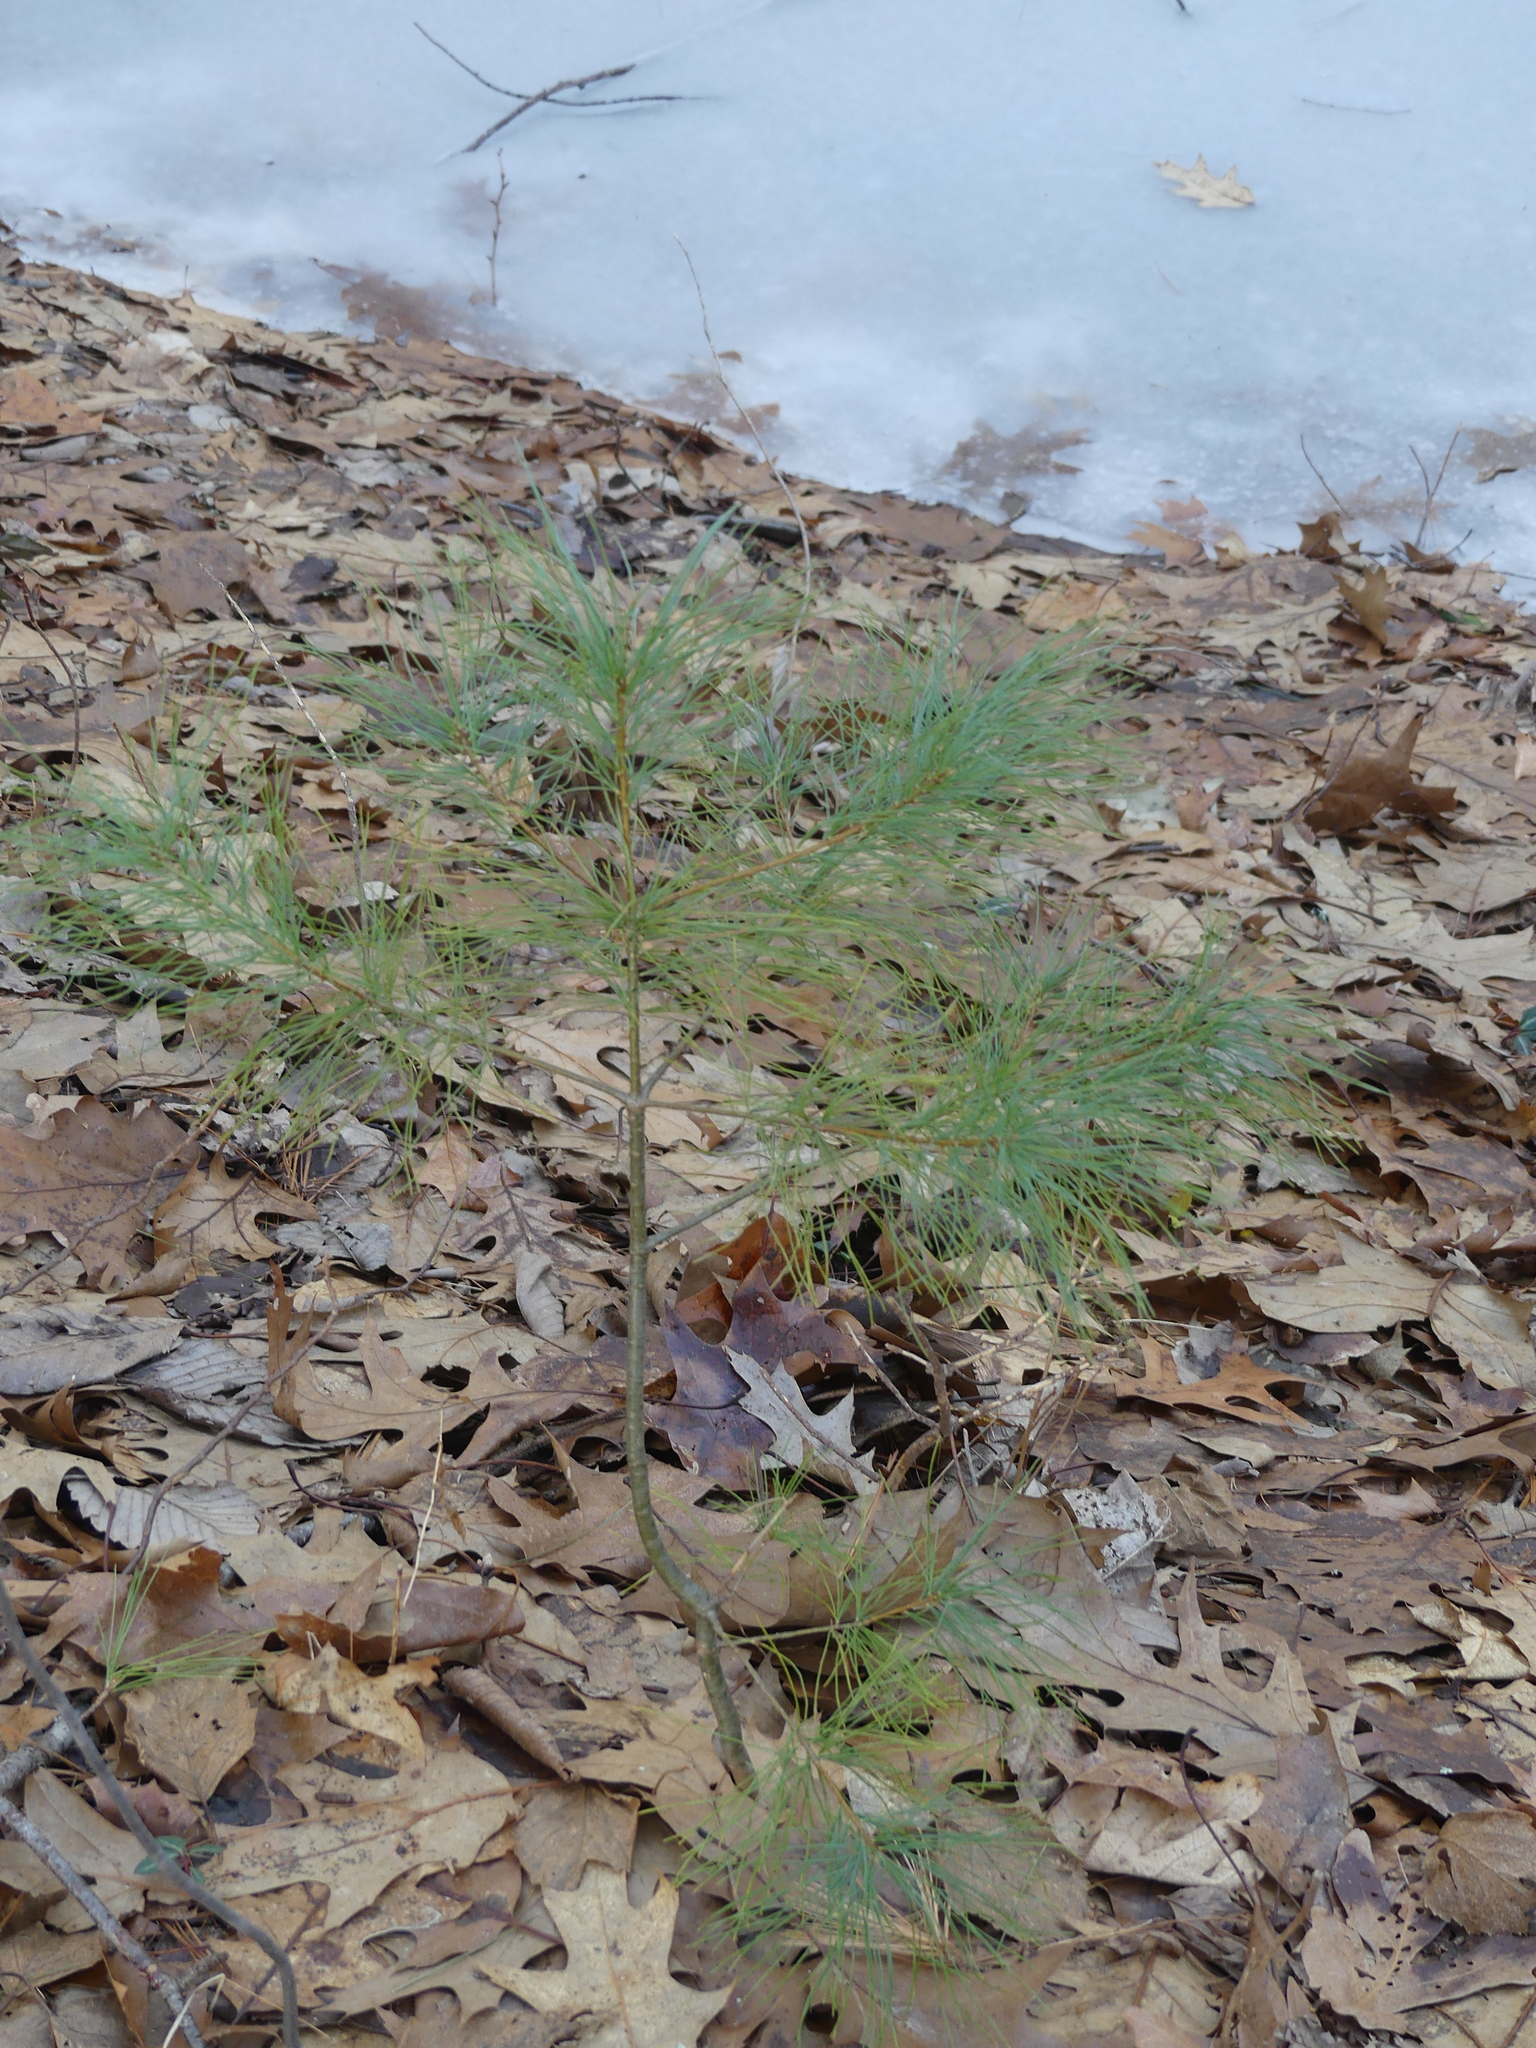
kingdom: Plantae
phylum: Tracheophyta
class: Pinopsida
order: Pinales
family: Pinaceae
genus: Pinus
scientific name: Pinus strobus
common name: Weymouth pine
